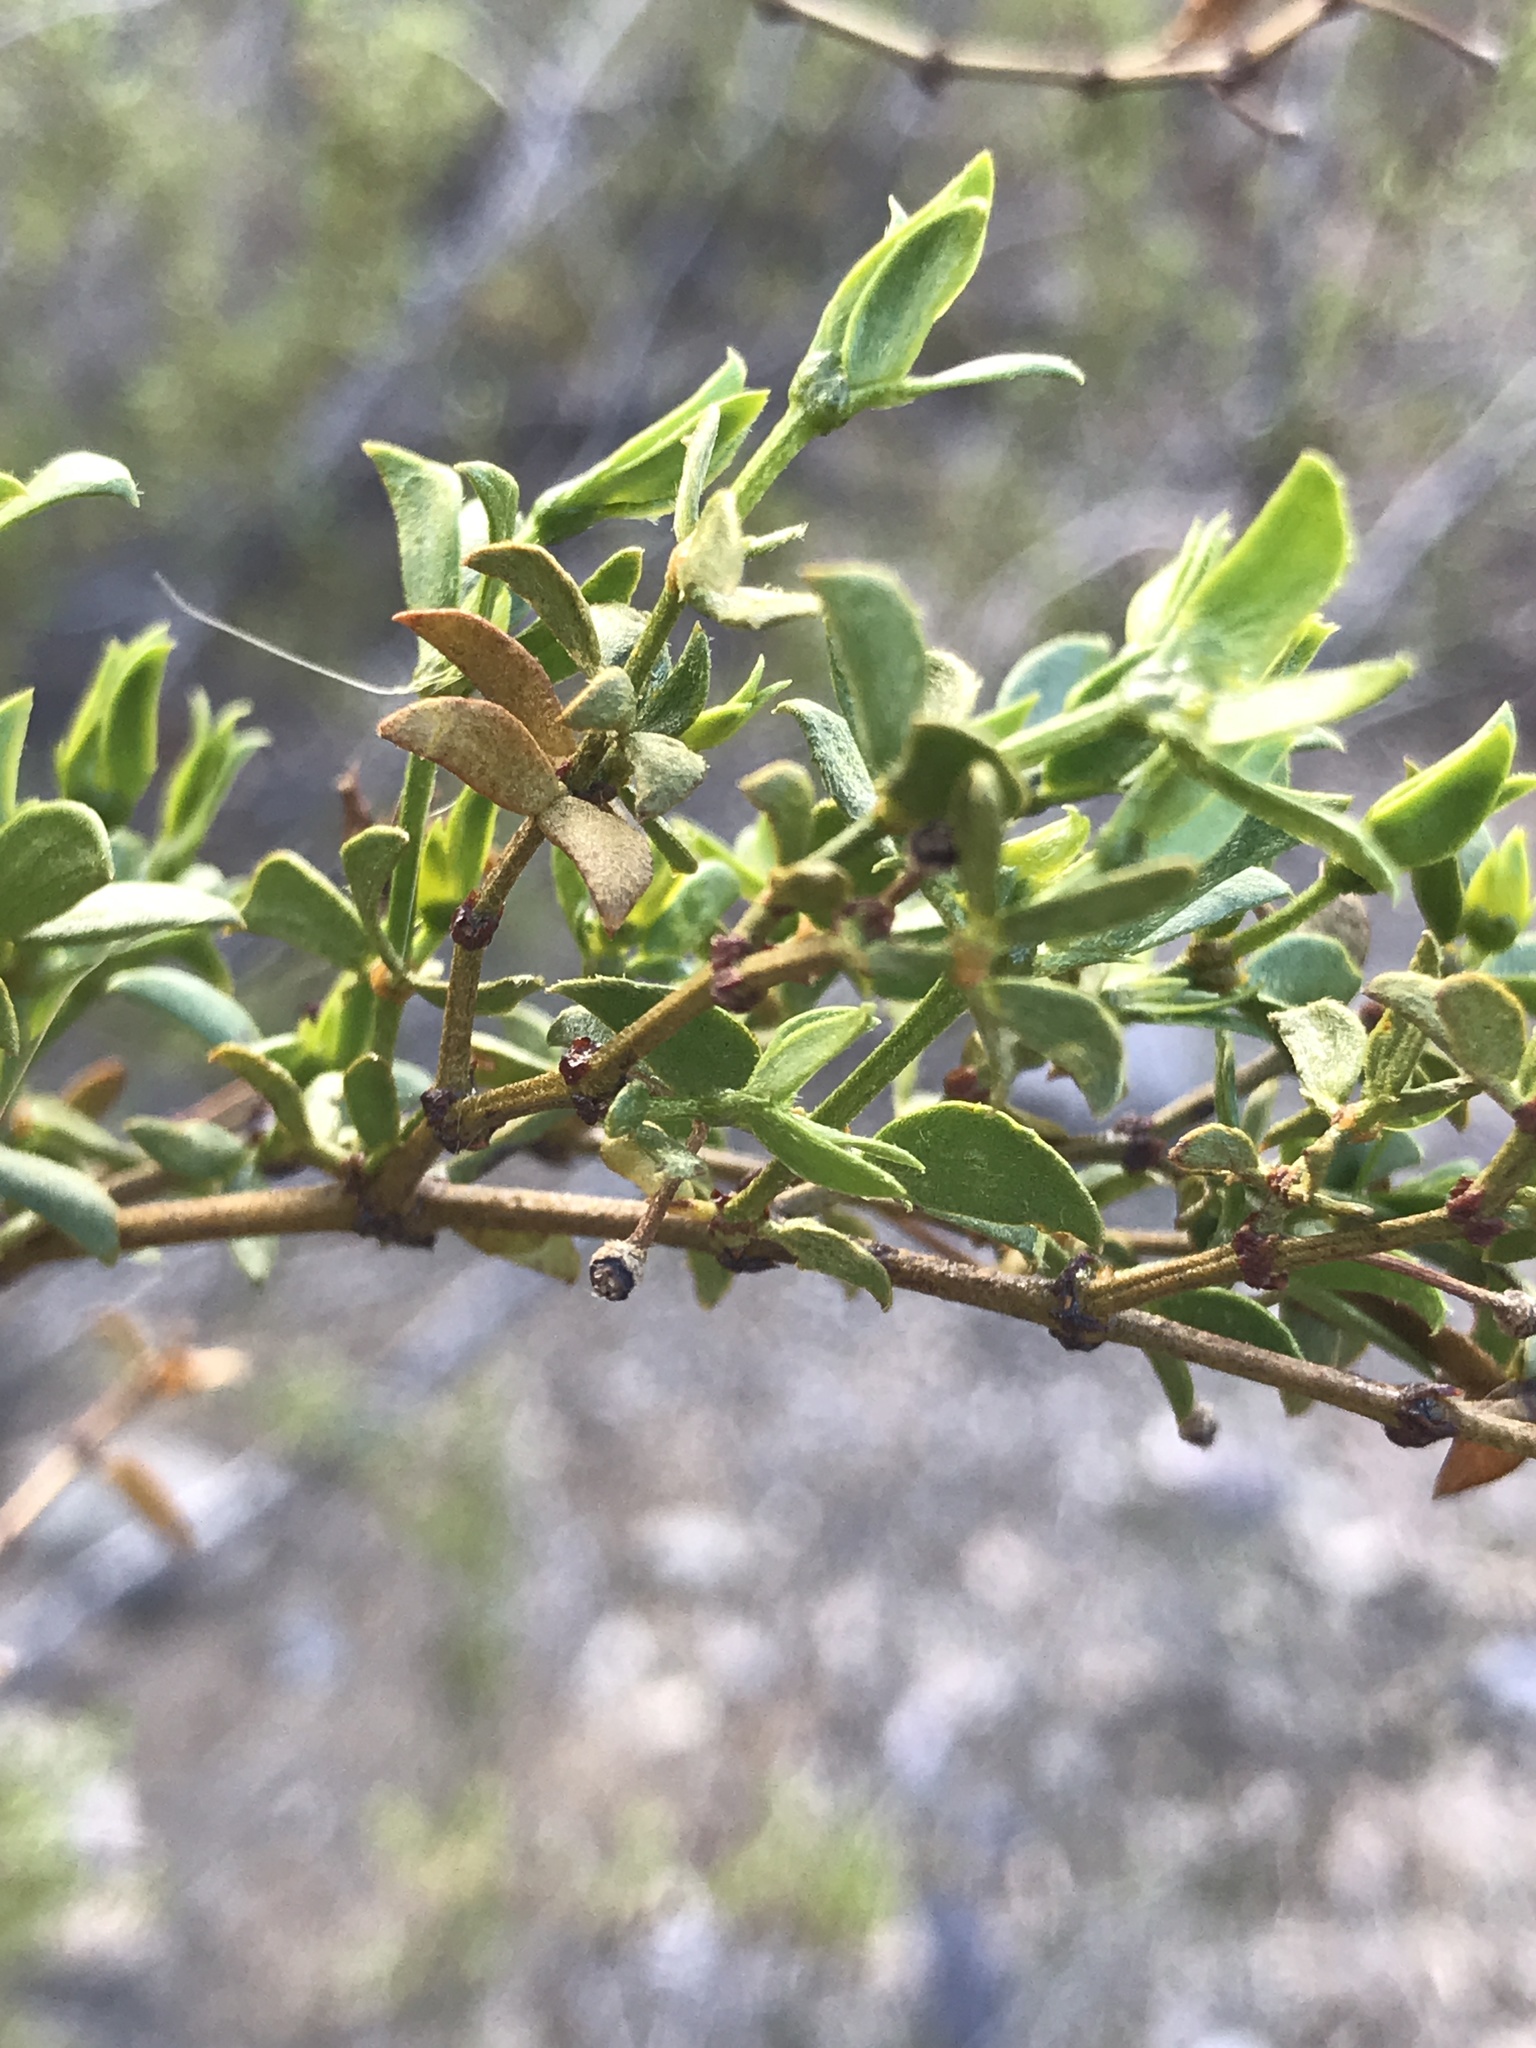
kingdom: Plantae
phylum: Tracheophyta
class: Magnoliopsida
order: Zygophyllales
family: Zygophyllaceae
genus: Larrea
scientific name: Larrea tridentata
